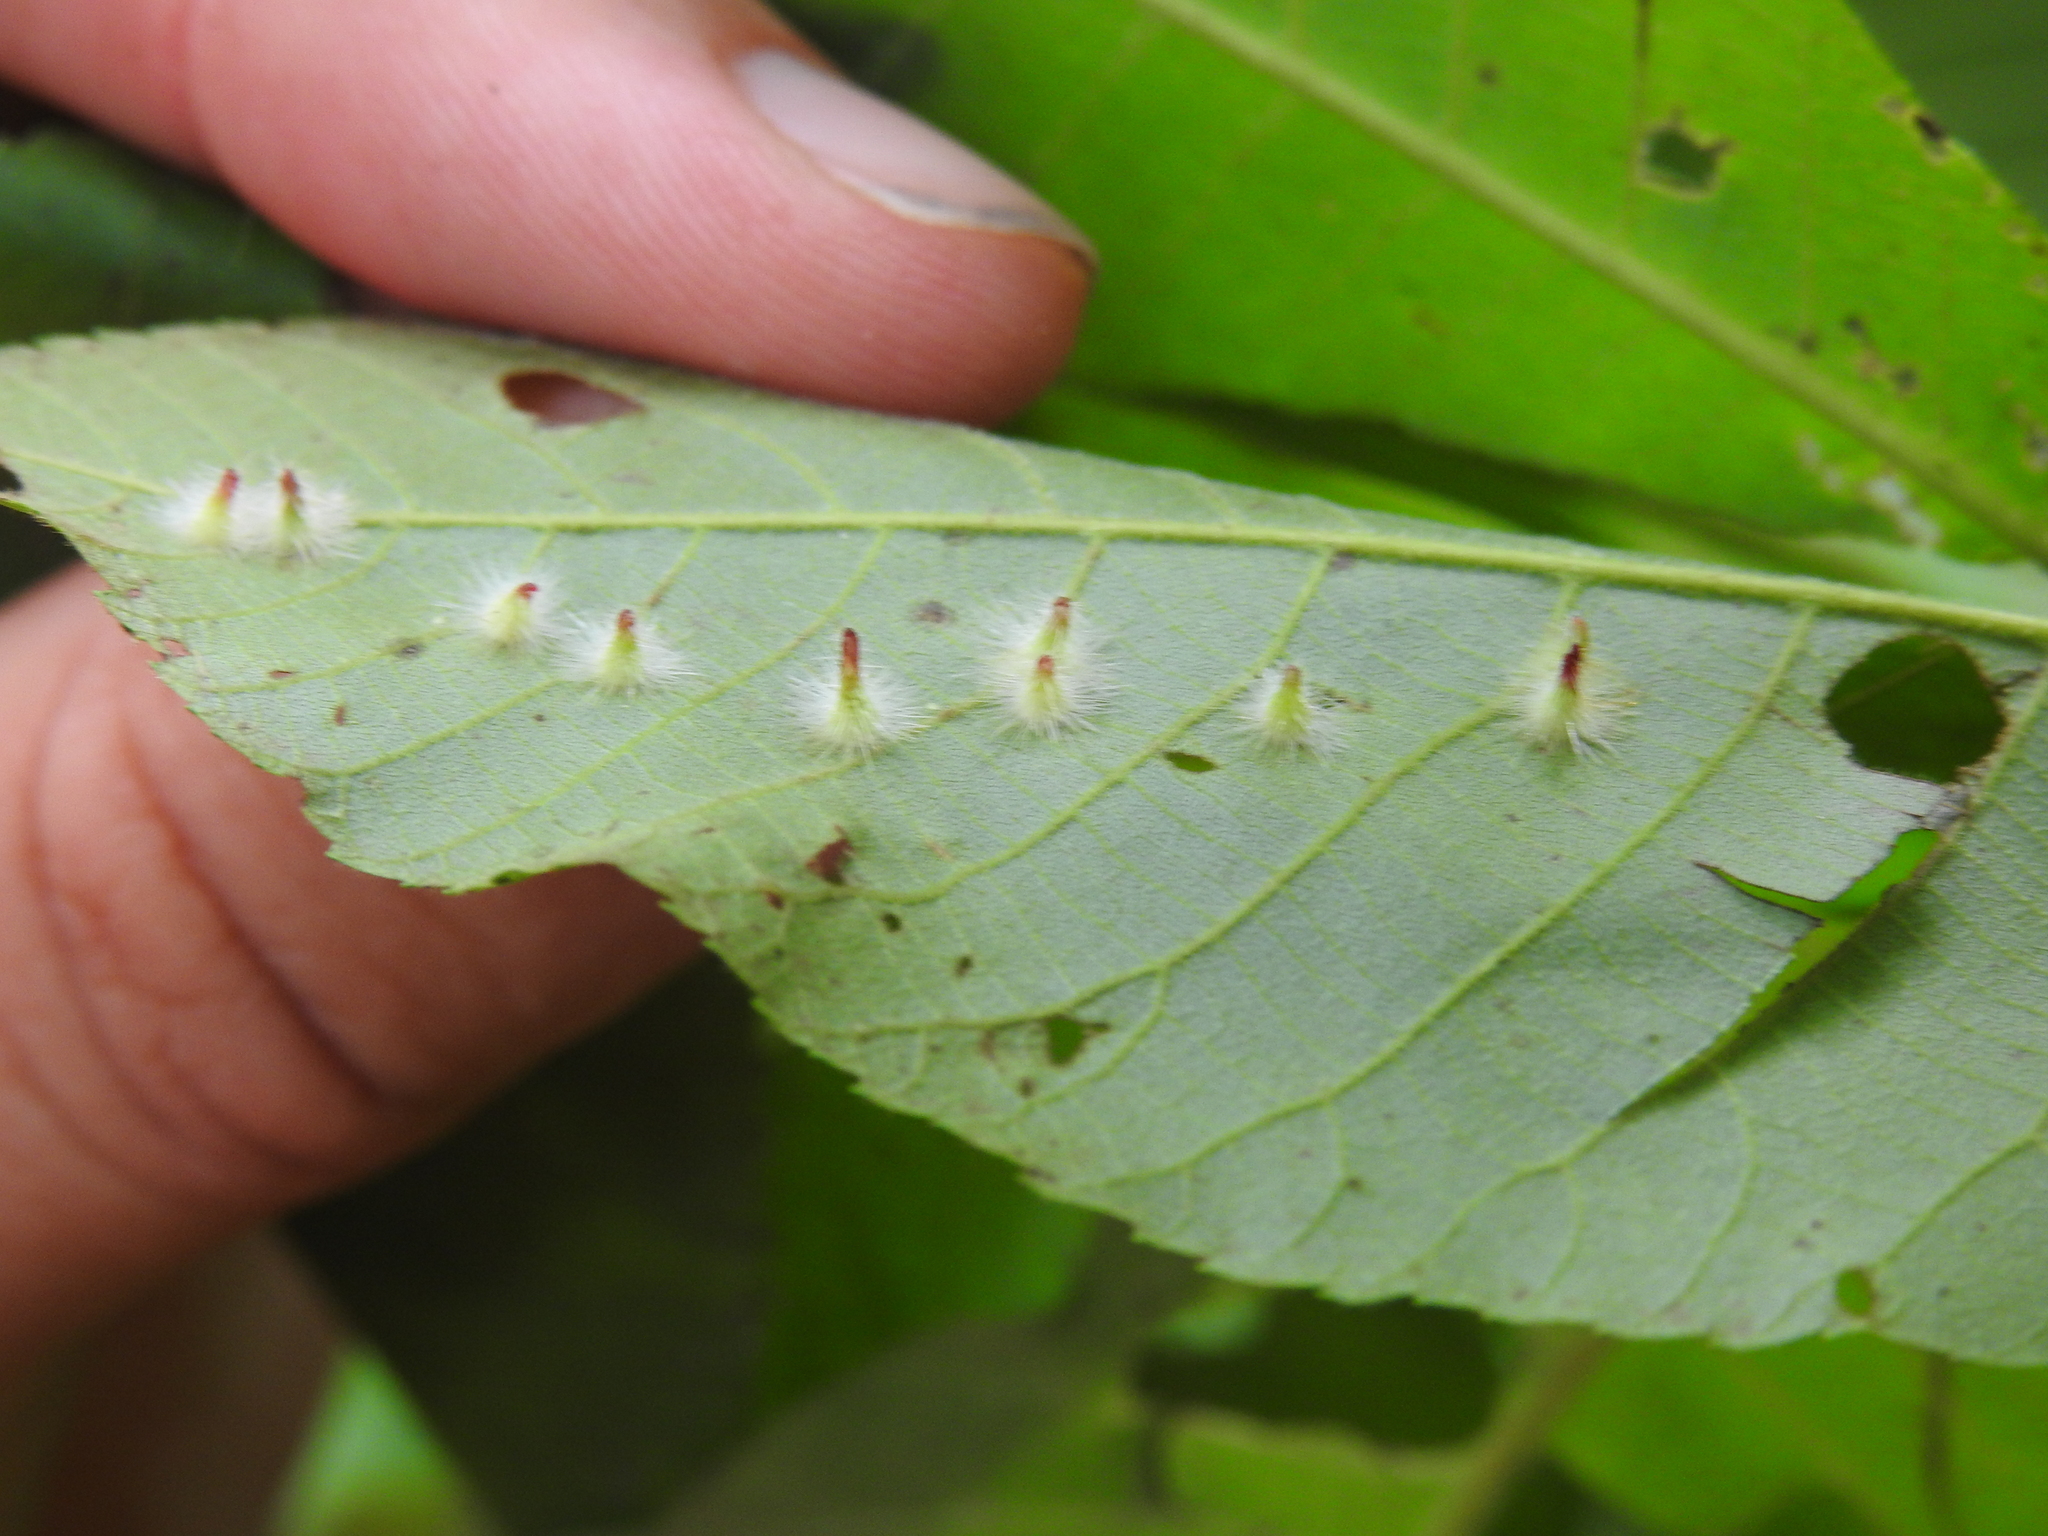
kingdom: Animalia
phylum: Arthropoda
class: Insecta
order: Diptera
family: Cecidomyiidae
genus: Caryomyia
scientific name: Caryomyia echinata
